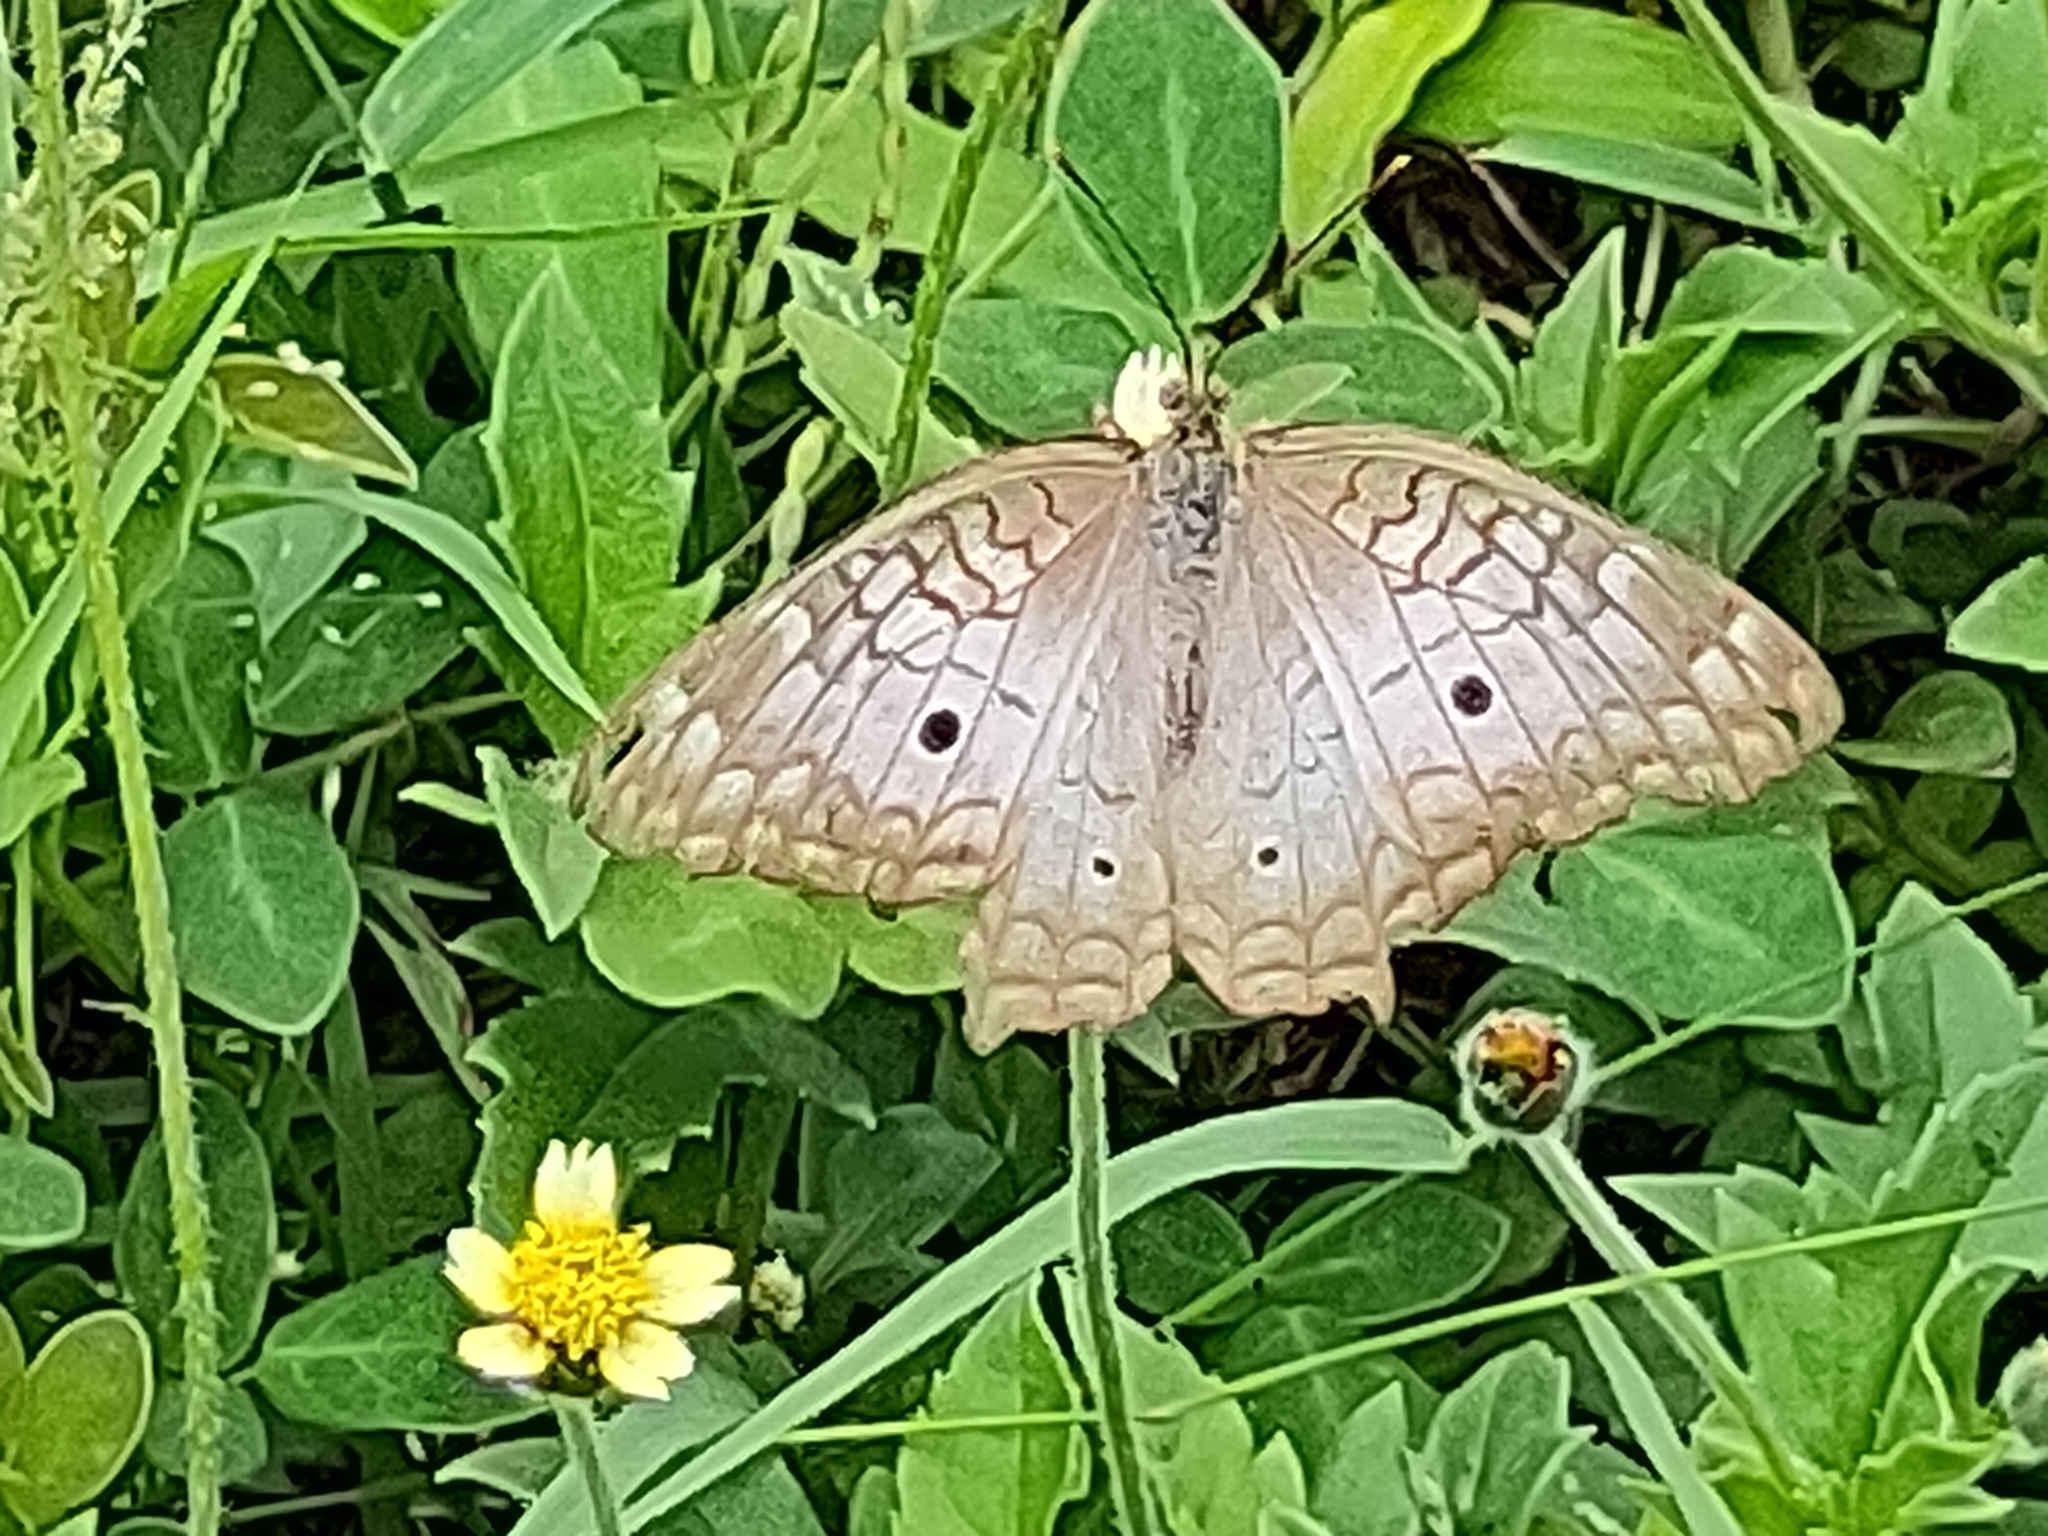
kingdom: Animalia
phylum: Arthropoda
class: Insecta
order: Lepidoptera
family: Nymphalidae
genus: Anartia
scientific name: Anartia jatrophae
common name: White peacock
